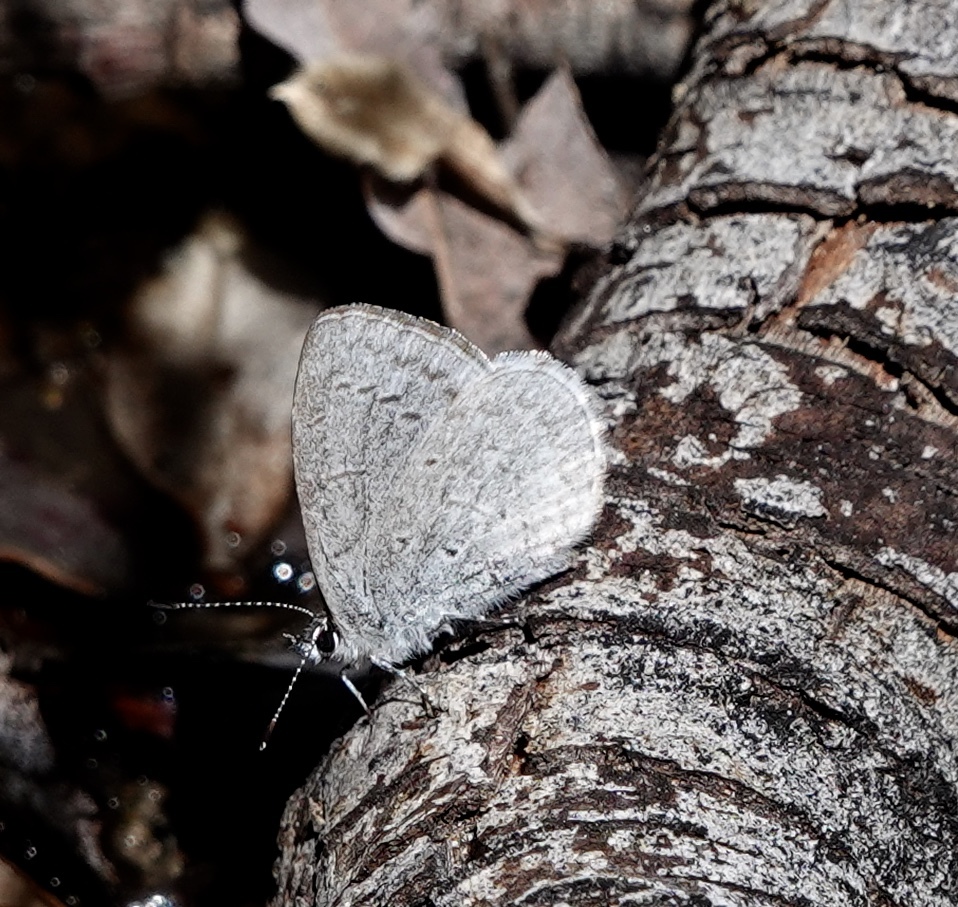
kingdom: Animalia
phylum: Arthropoda
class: Insecta
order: Lepidoptera
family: Lycaenidae
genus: Celastrina
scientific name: Celastrina ladon
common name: Spring azure
